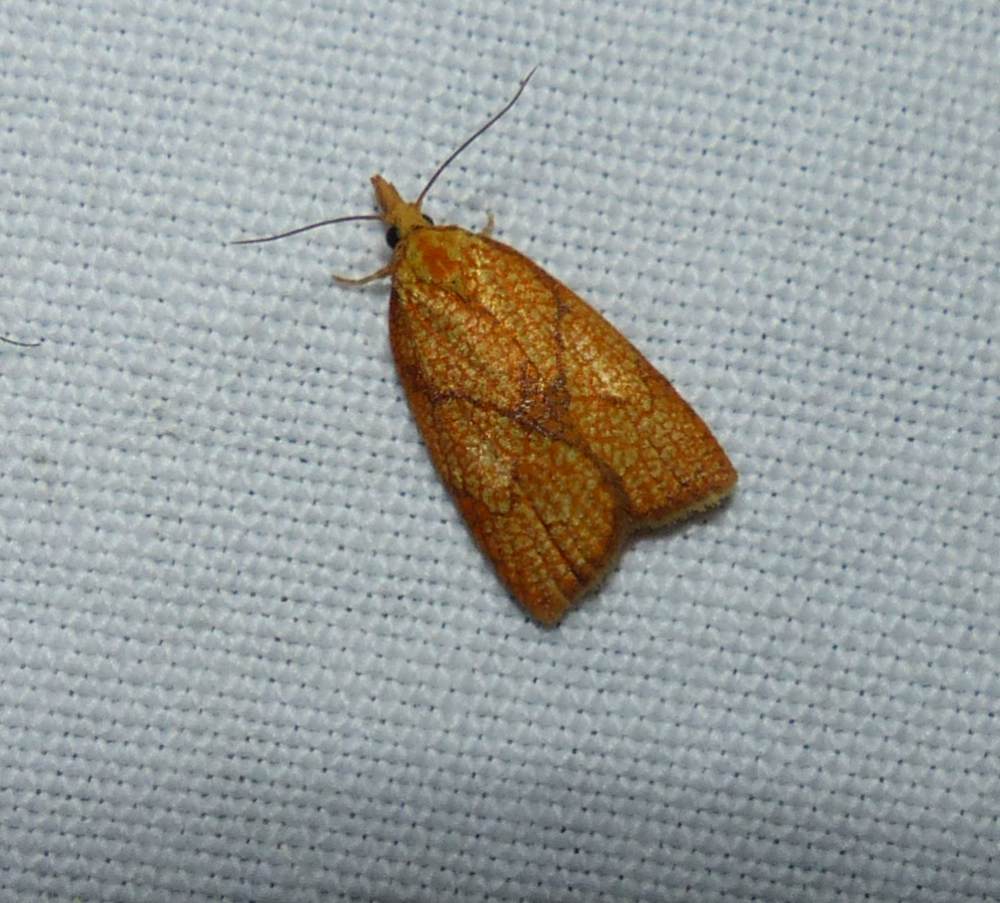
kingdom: Animalia
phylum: Arthropoda
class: Insecta
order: Lepidoptera
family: Tortricidae
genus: Cenopis
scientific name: Cenopis reticulatana
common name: Reticulated fruitworm moth
